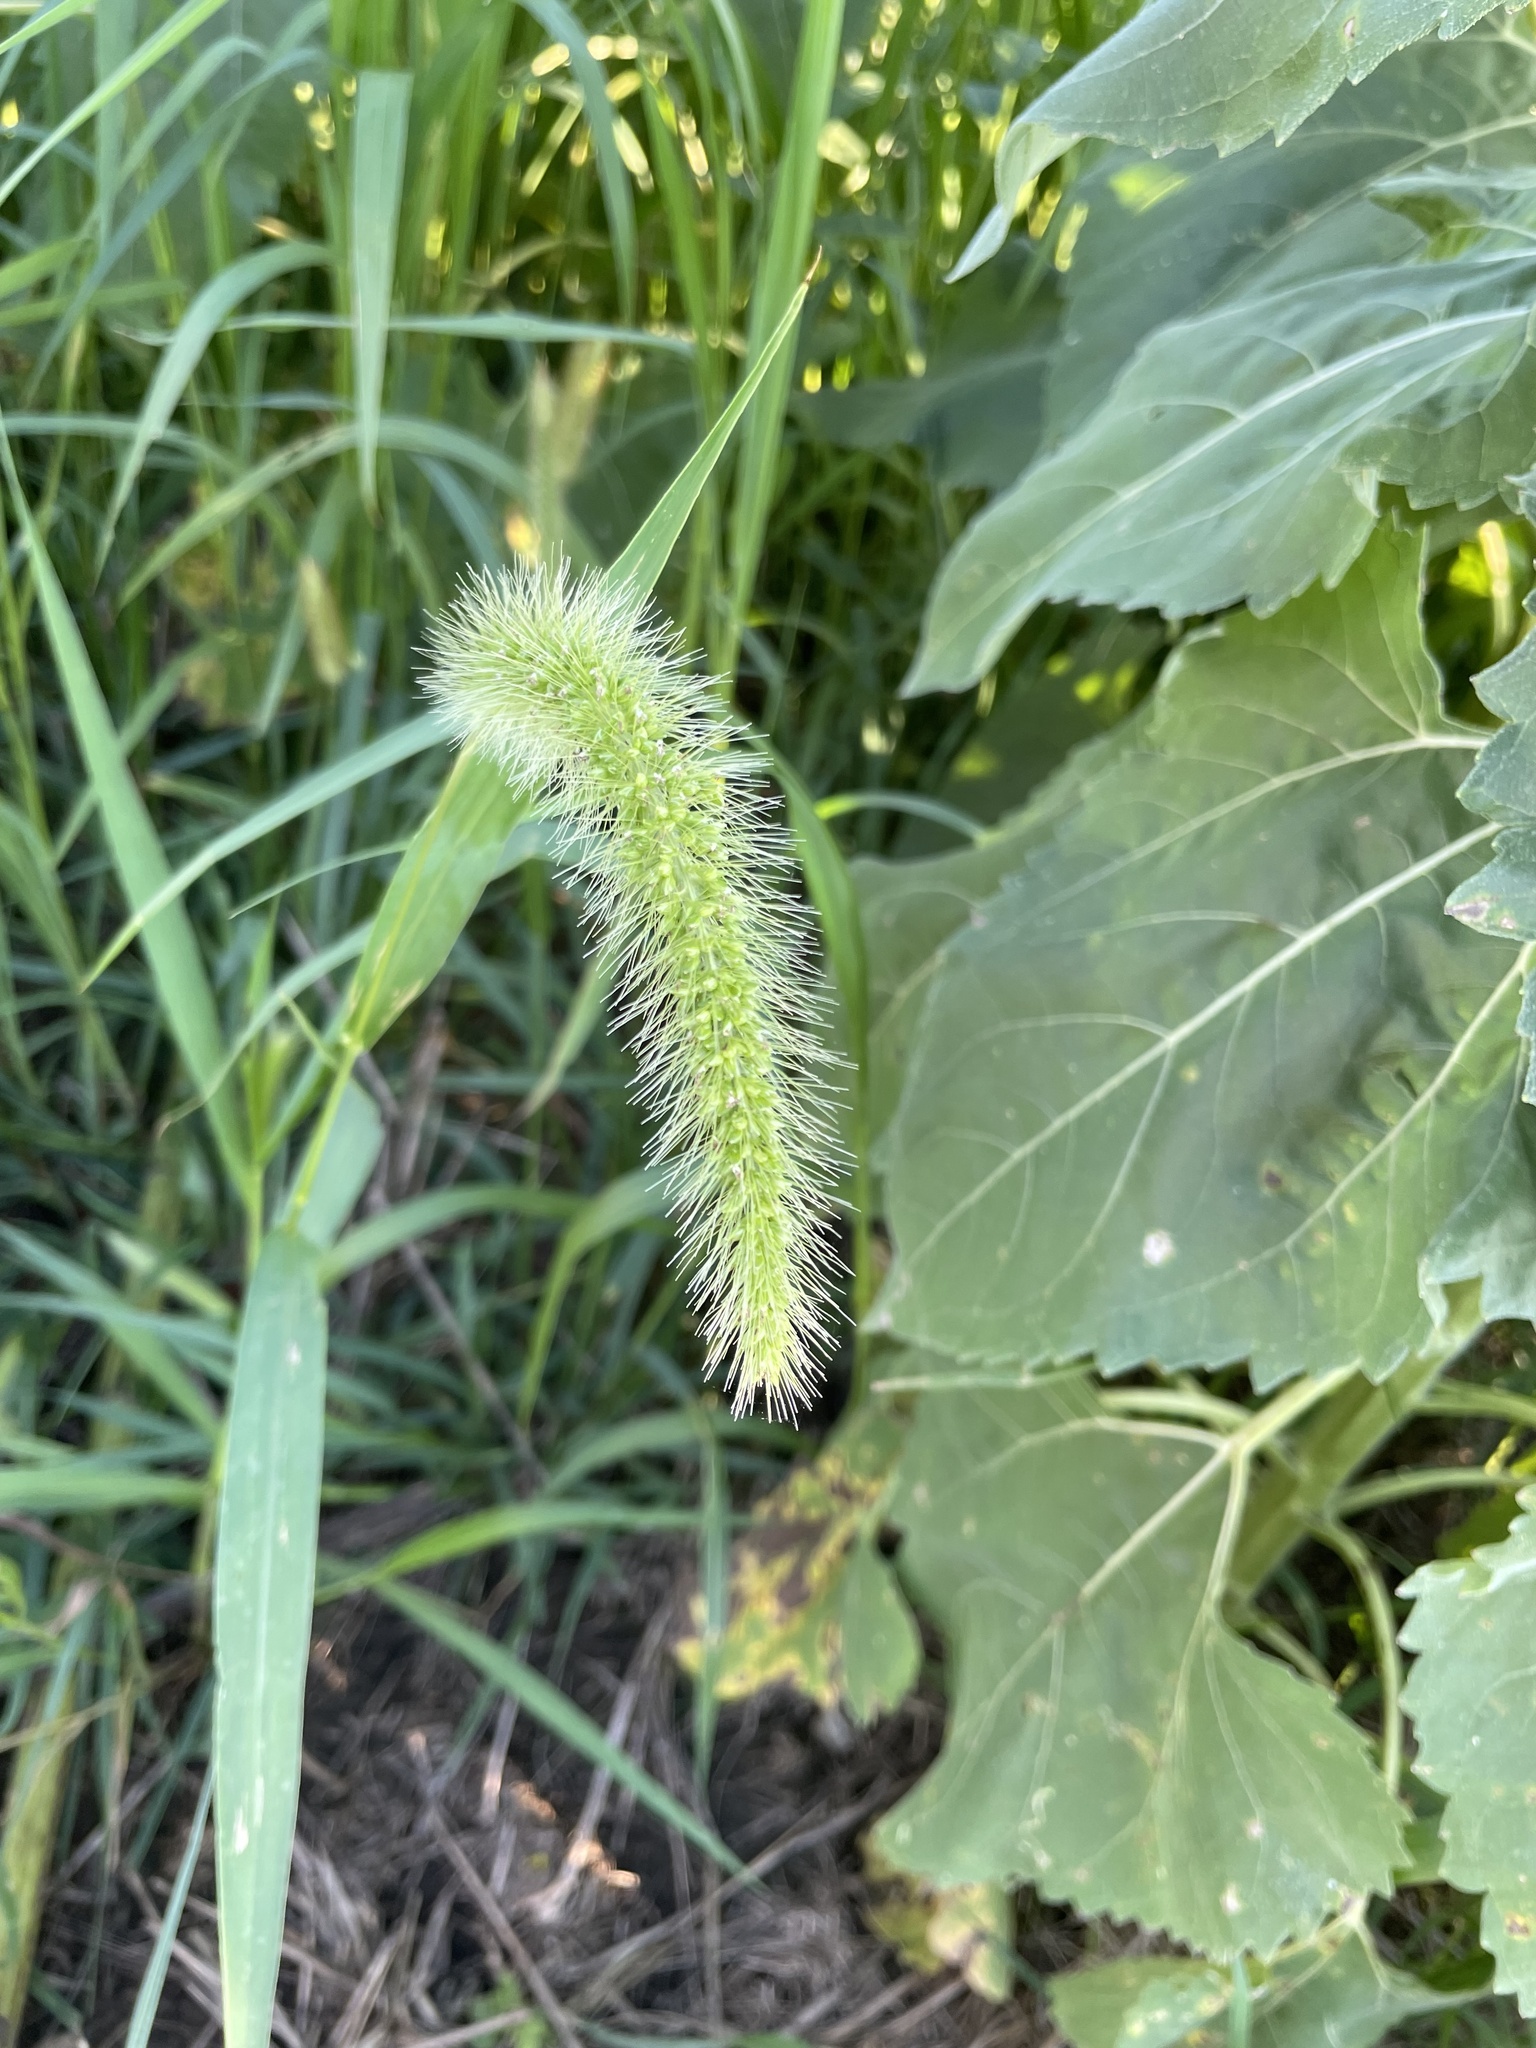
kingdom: Plantae
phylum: Tracheophyta
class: Liliopsida
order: Poales
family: Poaceae
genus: Setaria
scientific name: Setaria faberi
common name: Nodding bristle-grass
